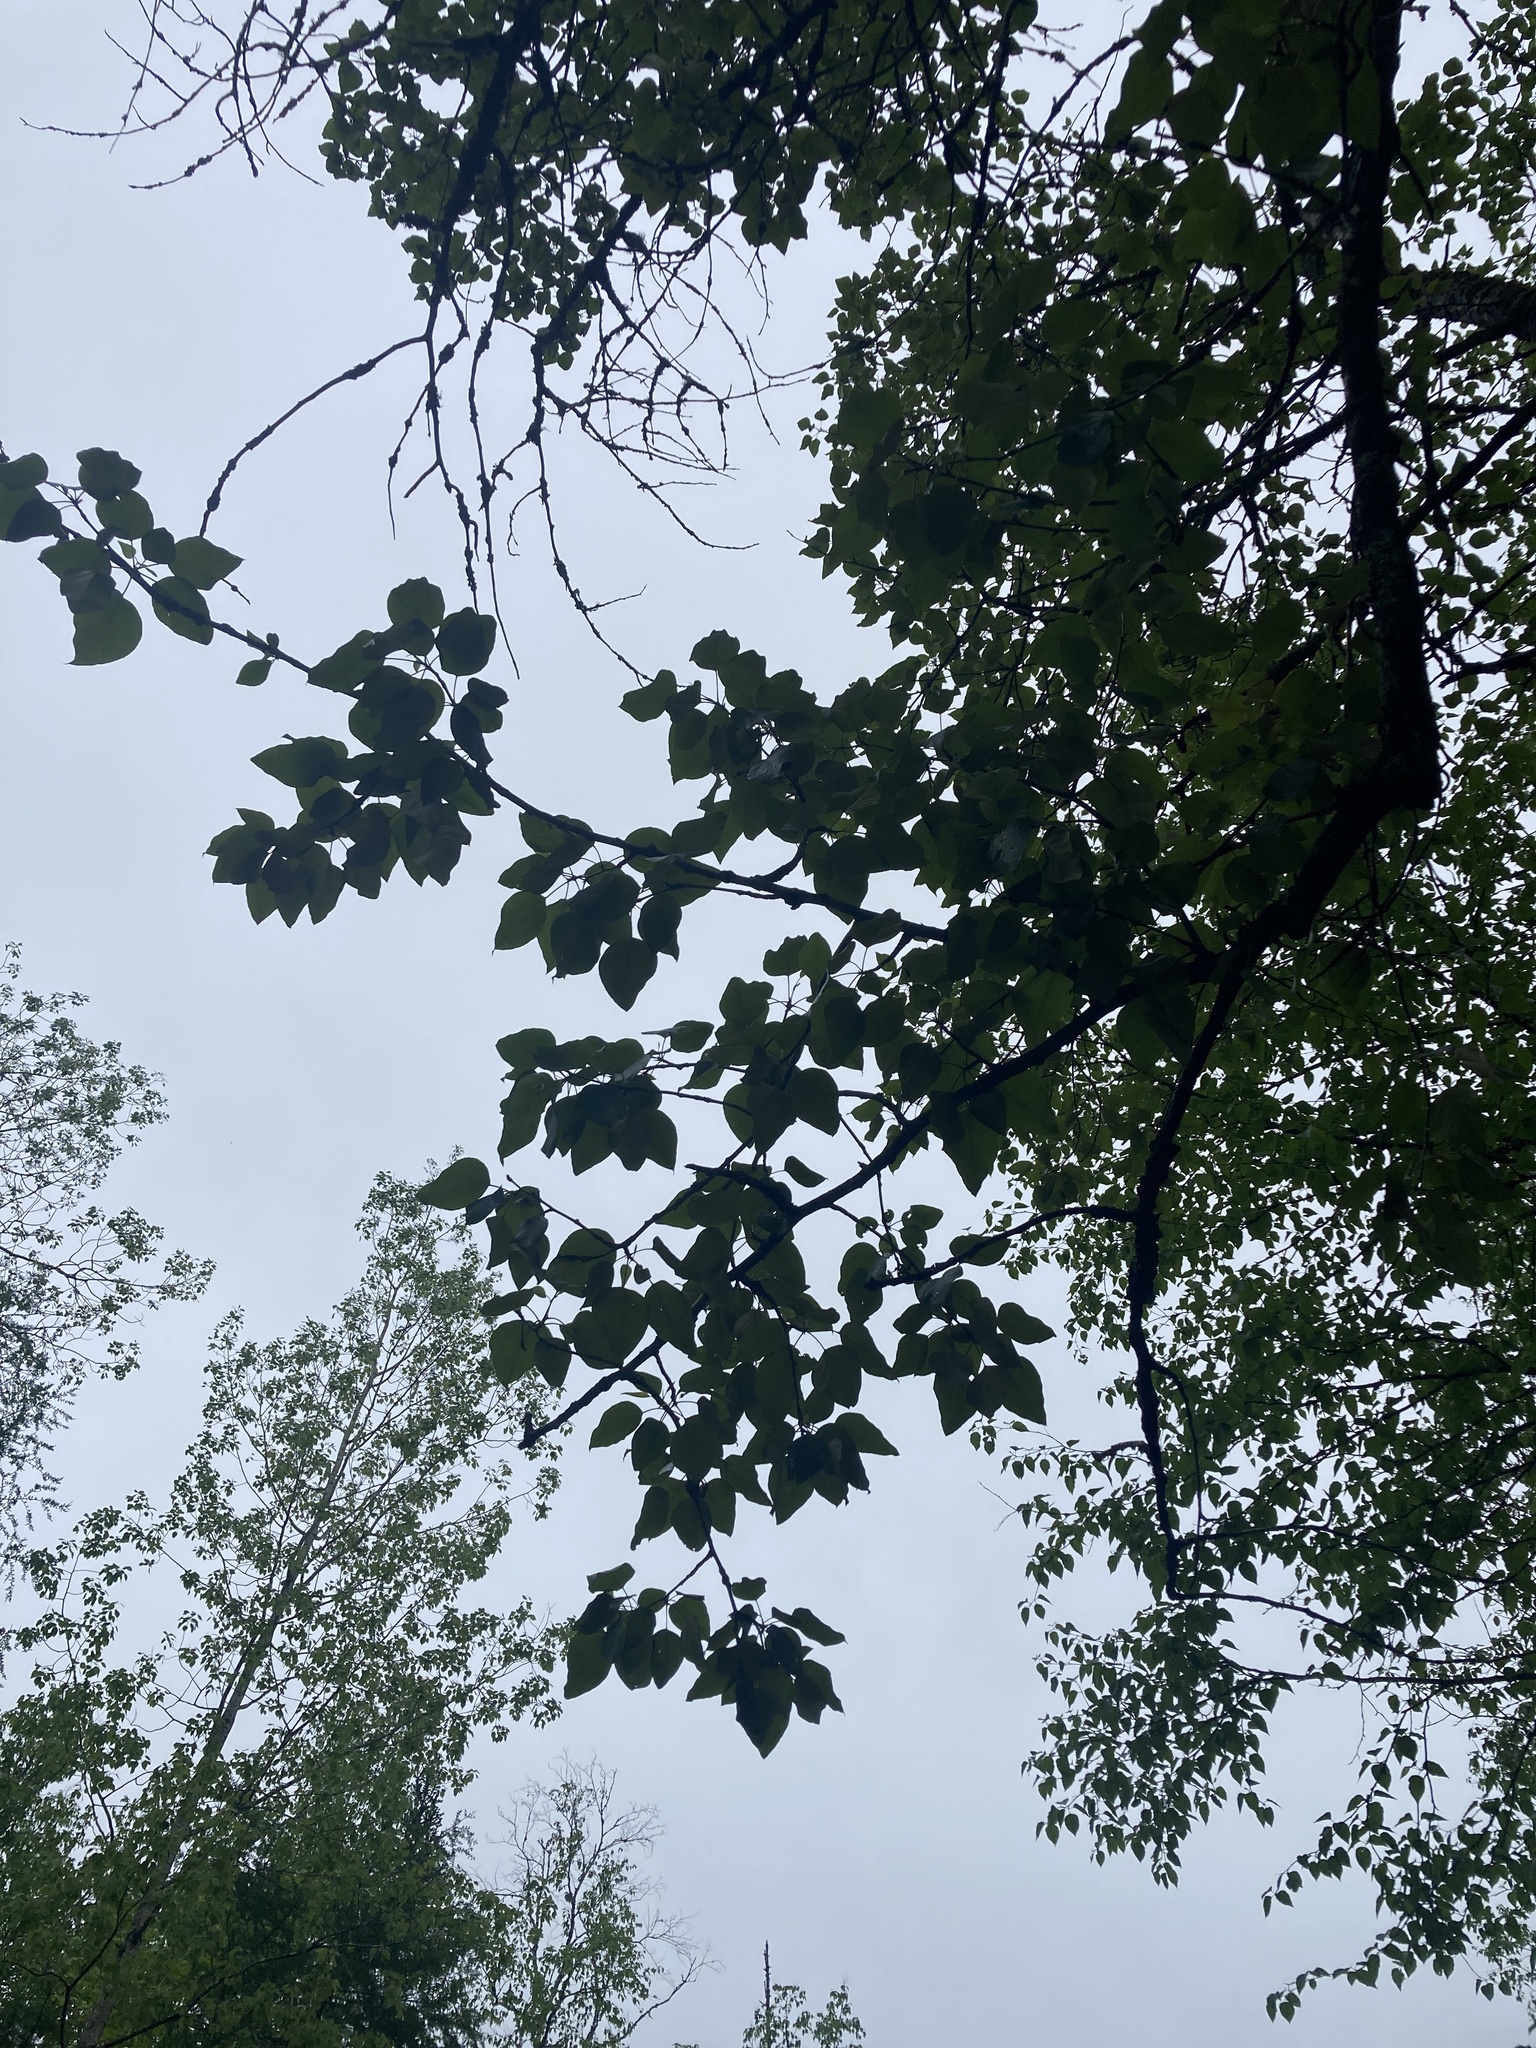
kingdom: Plantae
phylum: Tracheophyta
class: Magnoliopsida
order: Malpighiales
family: Salicaceae
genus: Populus
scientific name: Populus balsamifera
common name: Balsam poplar
